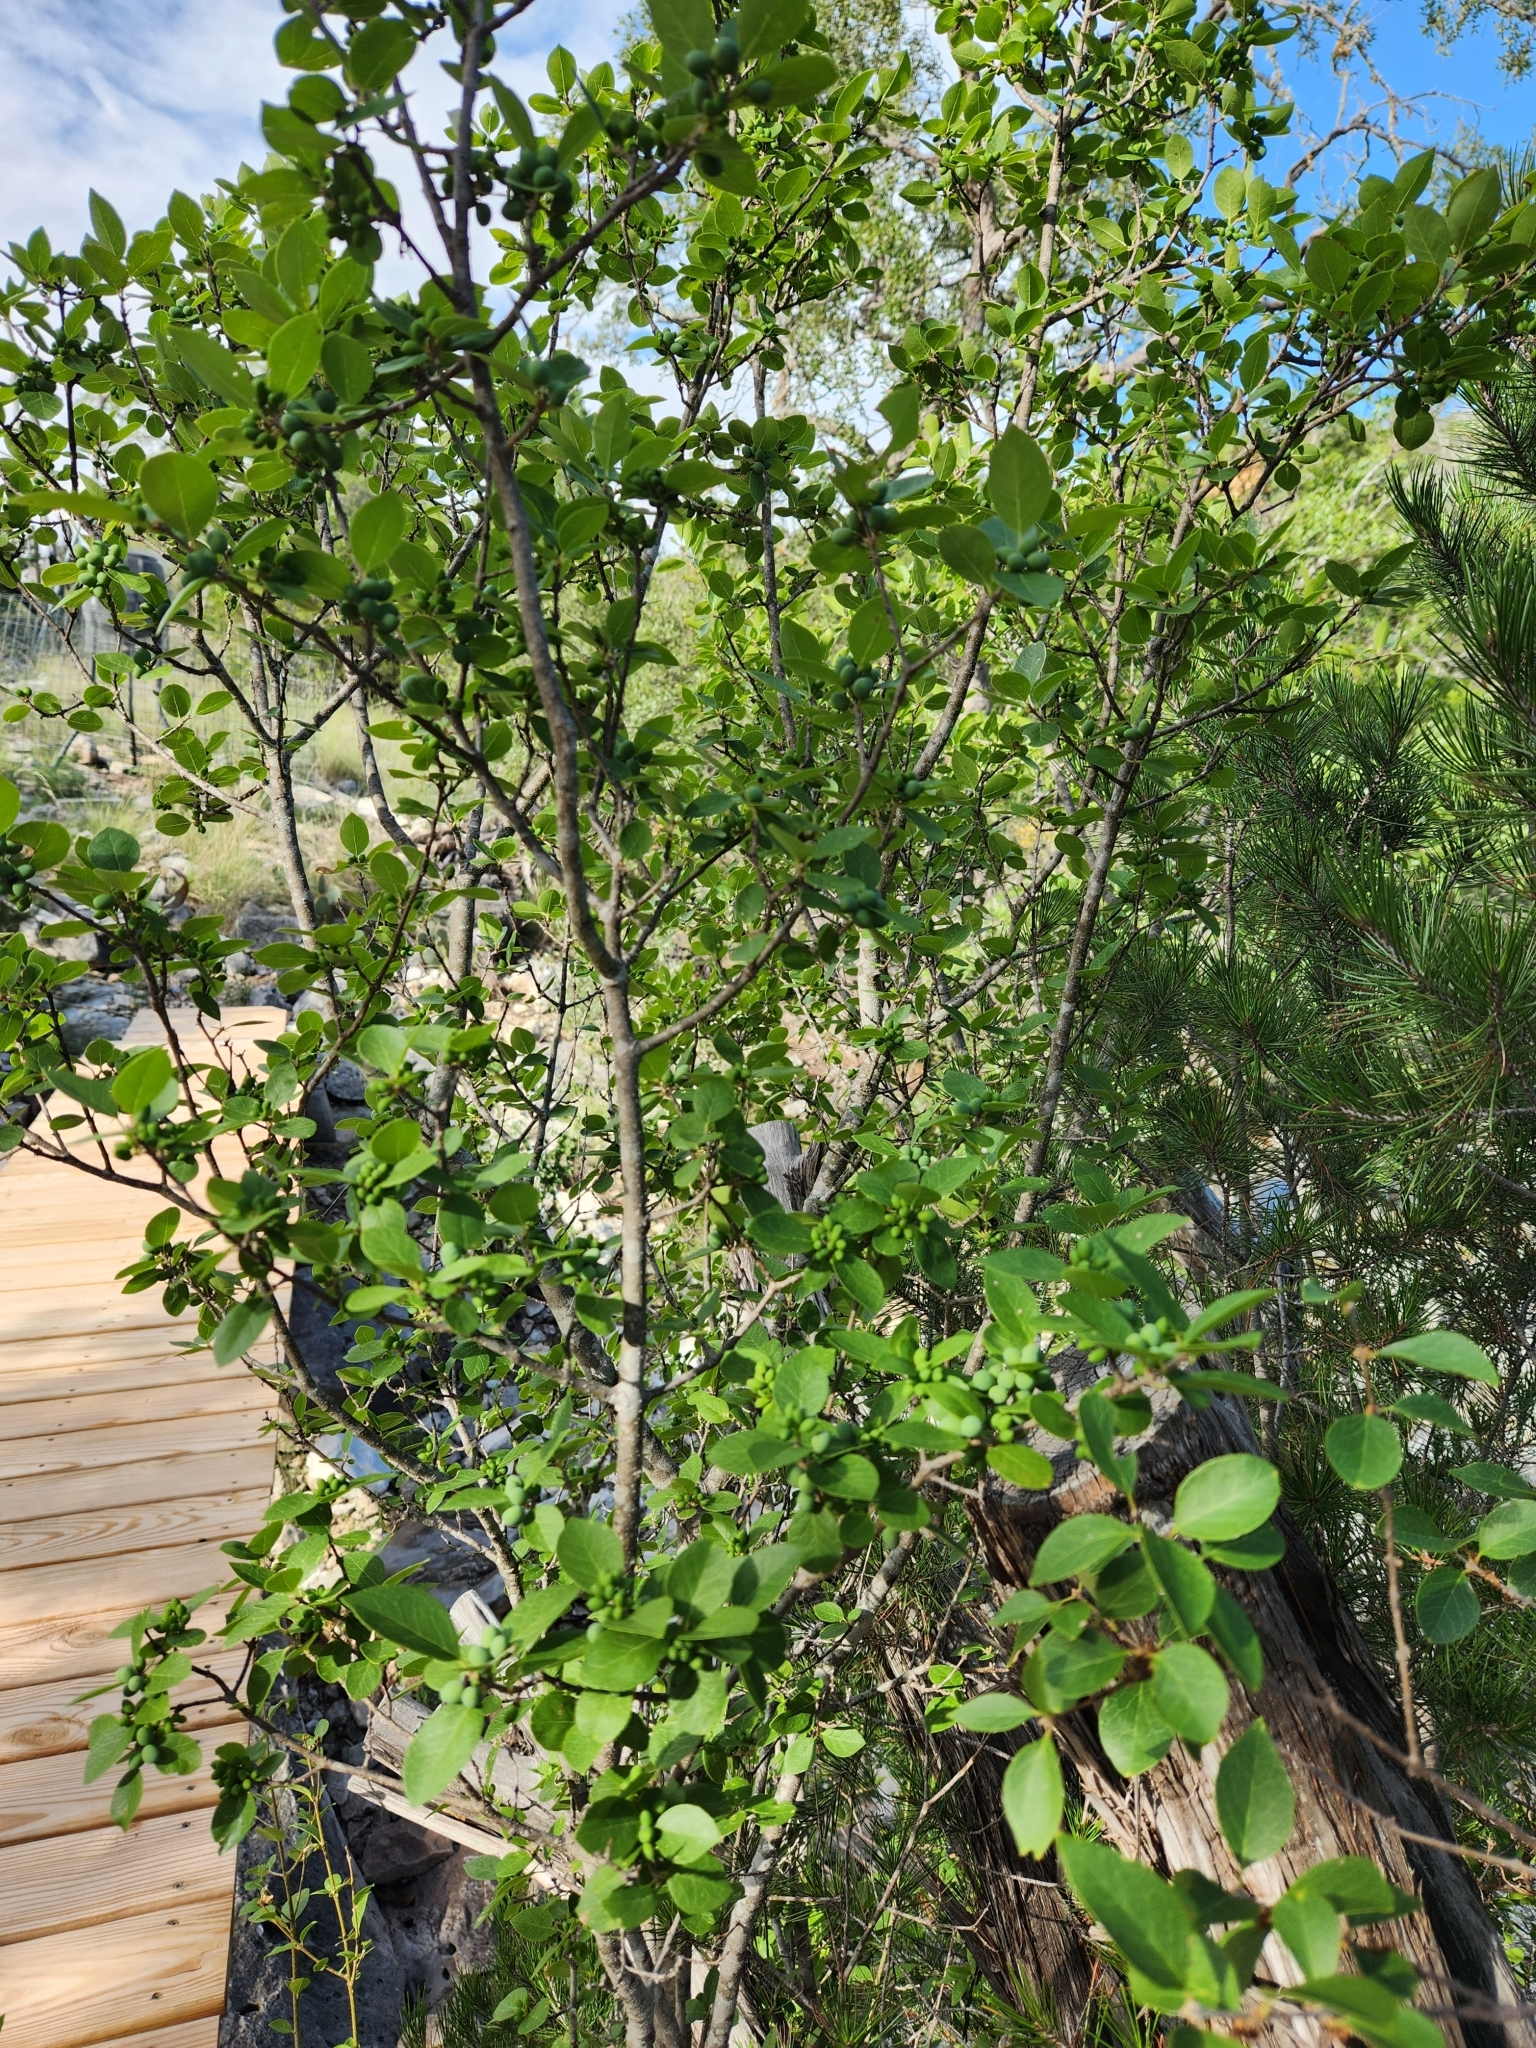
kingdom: Plantae
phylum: Tracheophyta
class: Magnoliopsida
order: Lamiales
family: Oleaceae
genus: Forestiera
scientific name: Forestiera reticulata
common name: Netleaf swamp-privet
